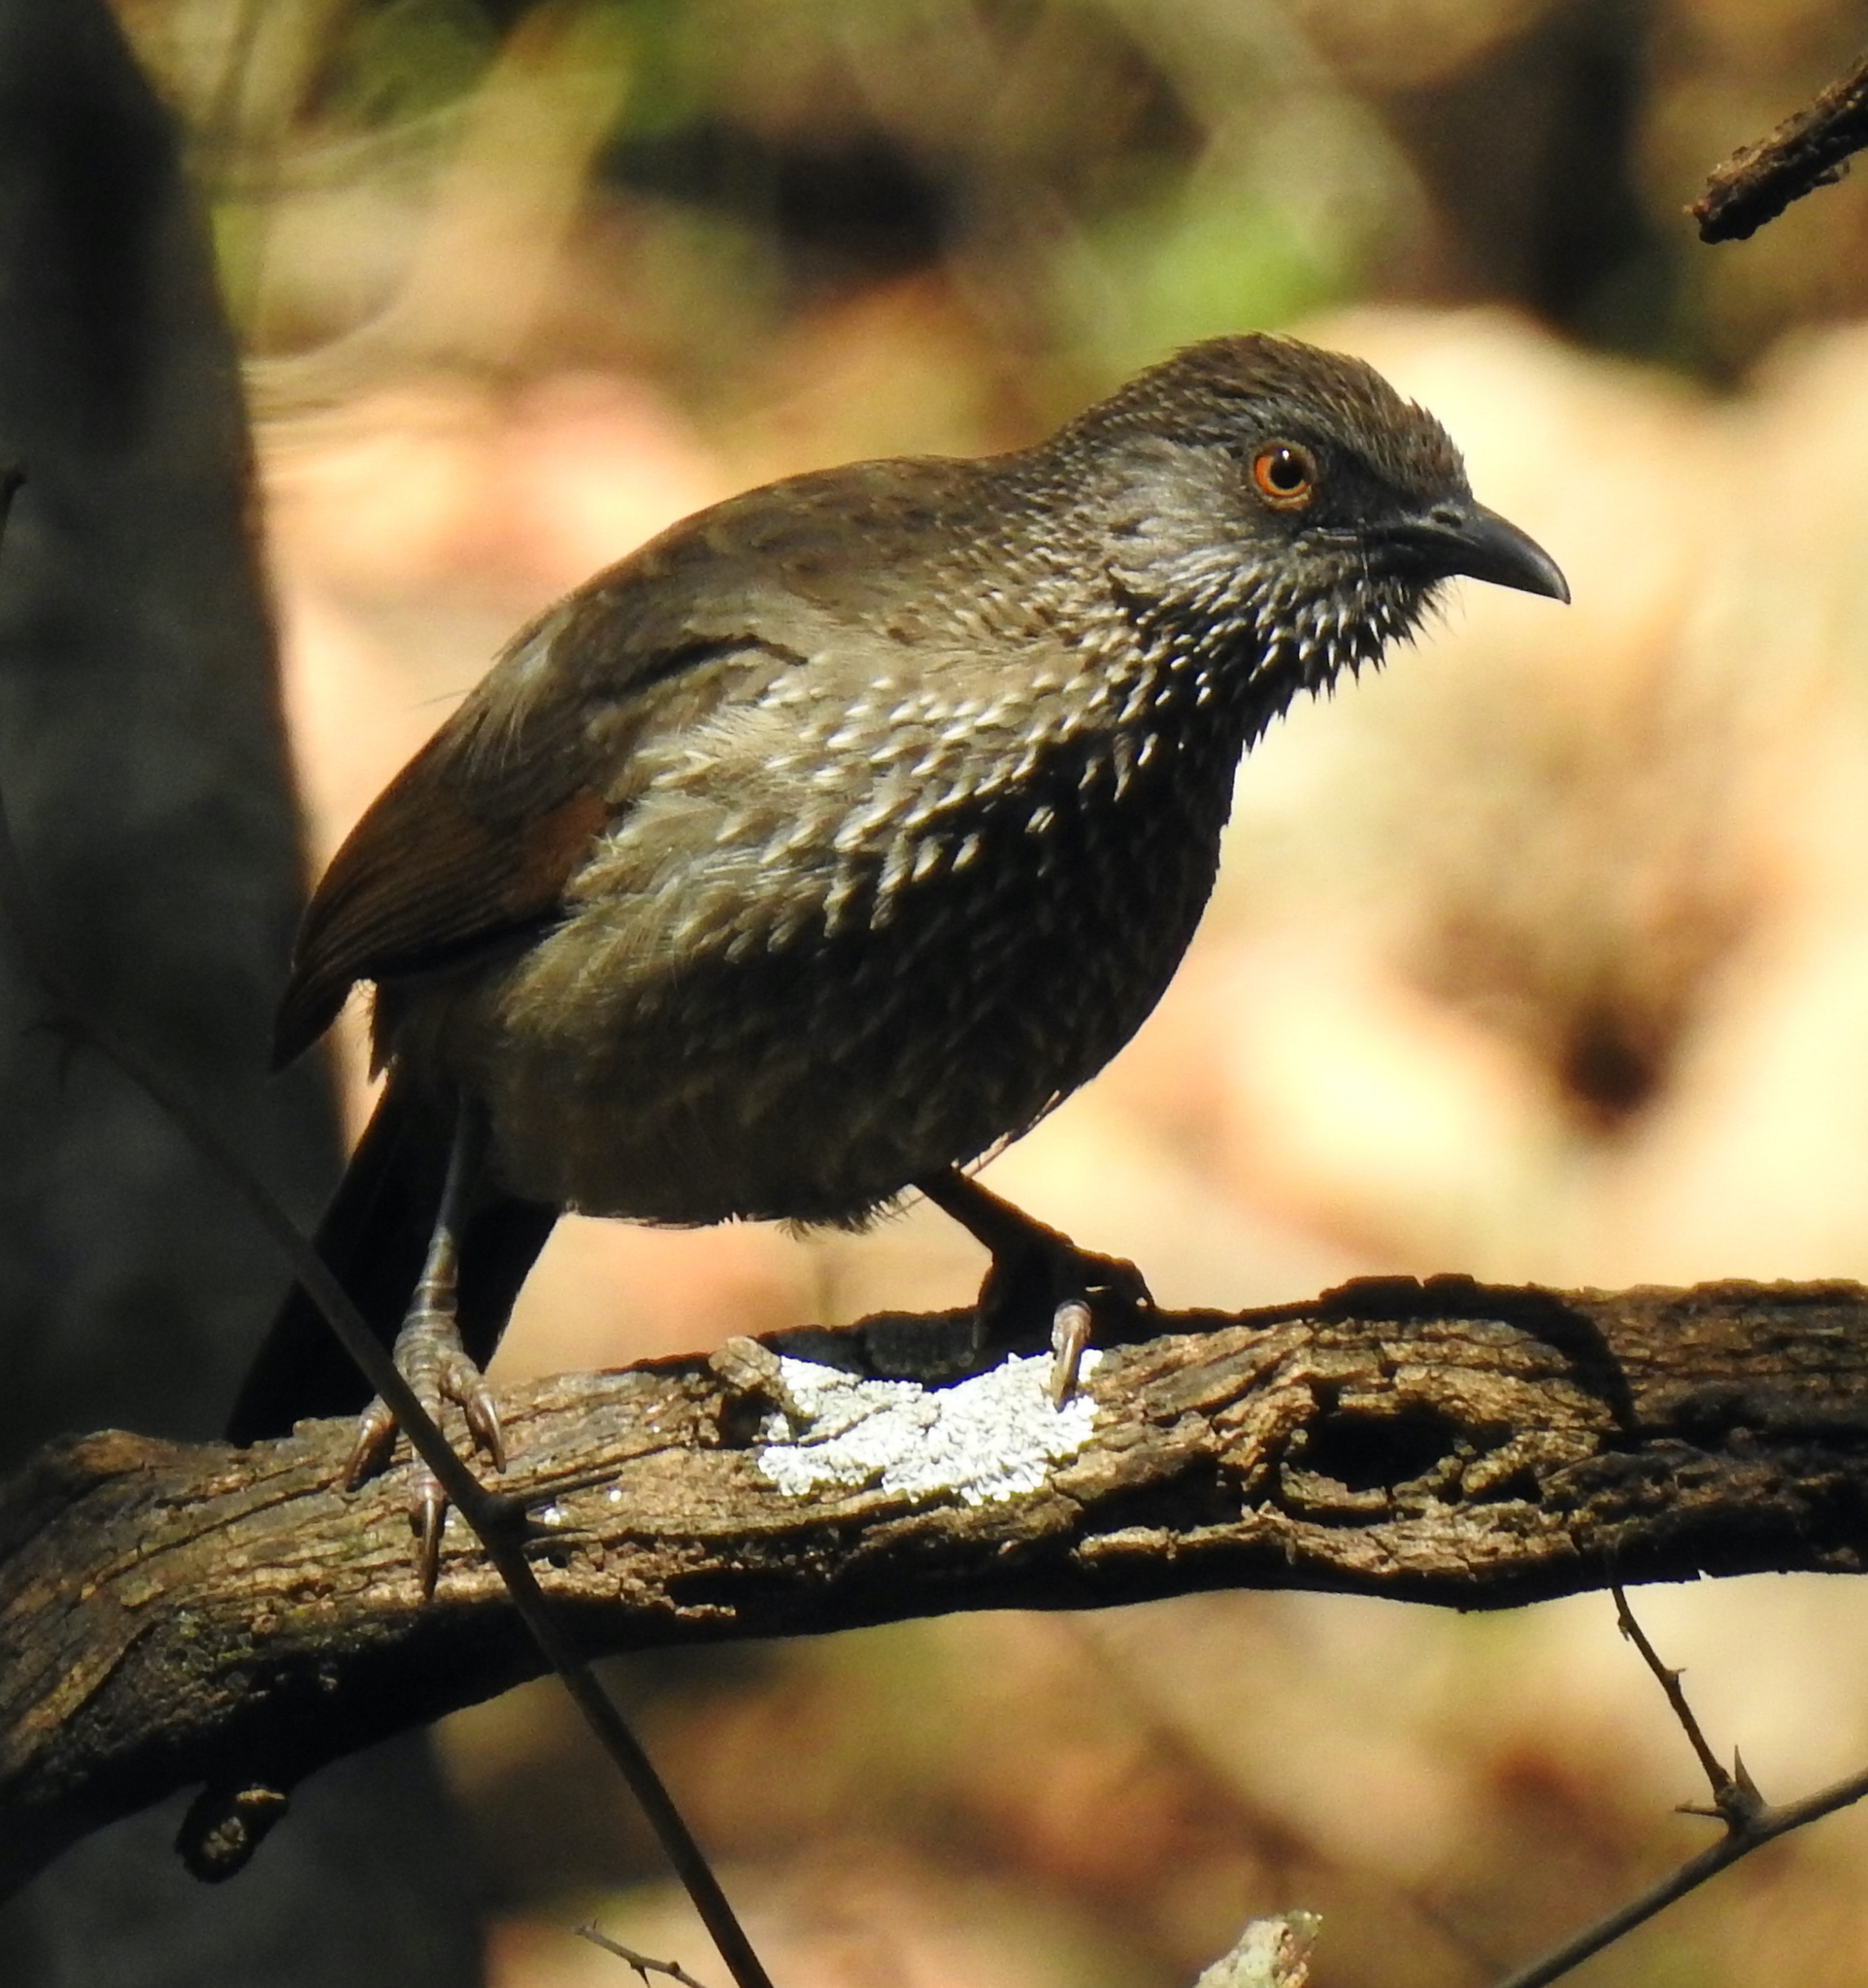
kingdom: Animalia
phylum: Chordata
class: Aves
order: Passeriformes
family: Leiothrichidae
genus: Turdoides
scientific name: Turdoides jardineii
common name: Arrow-marked babbler
